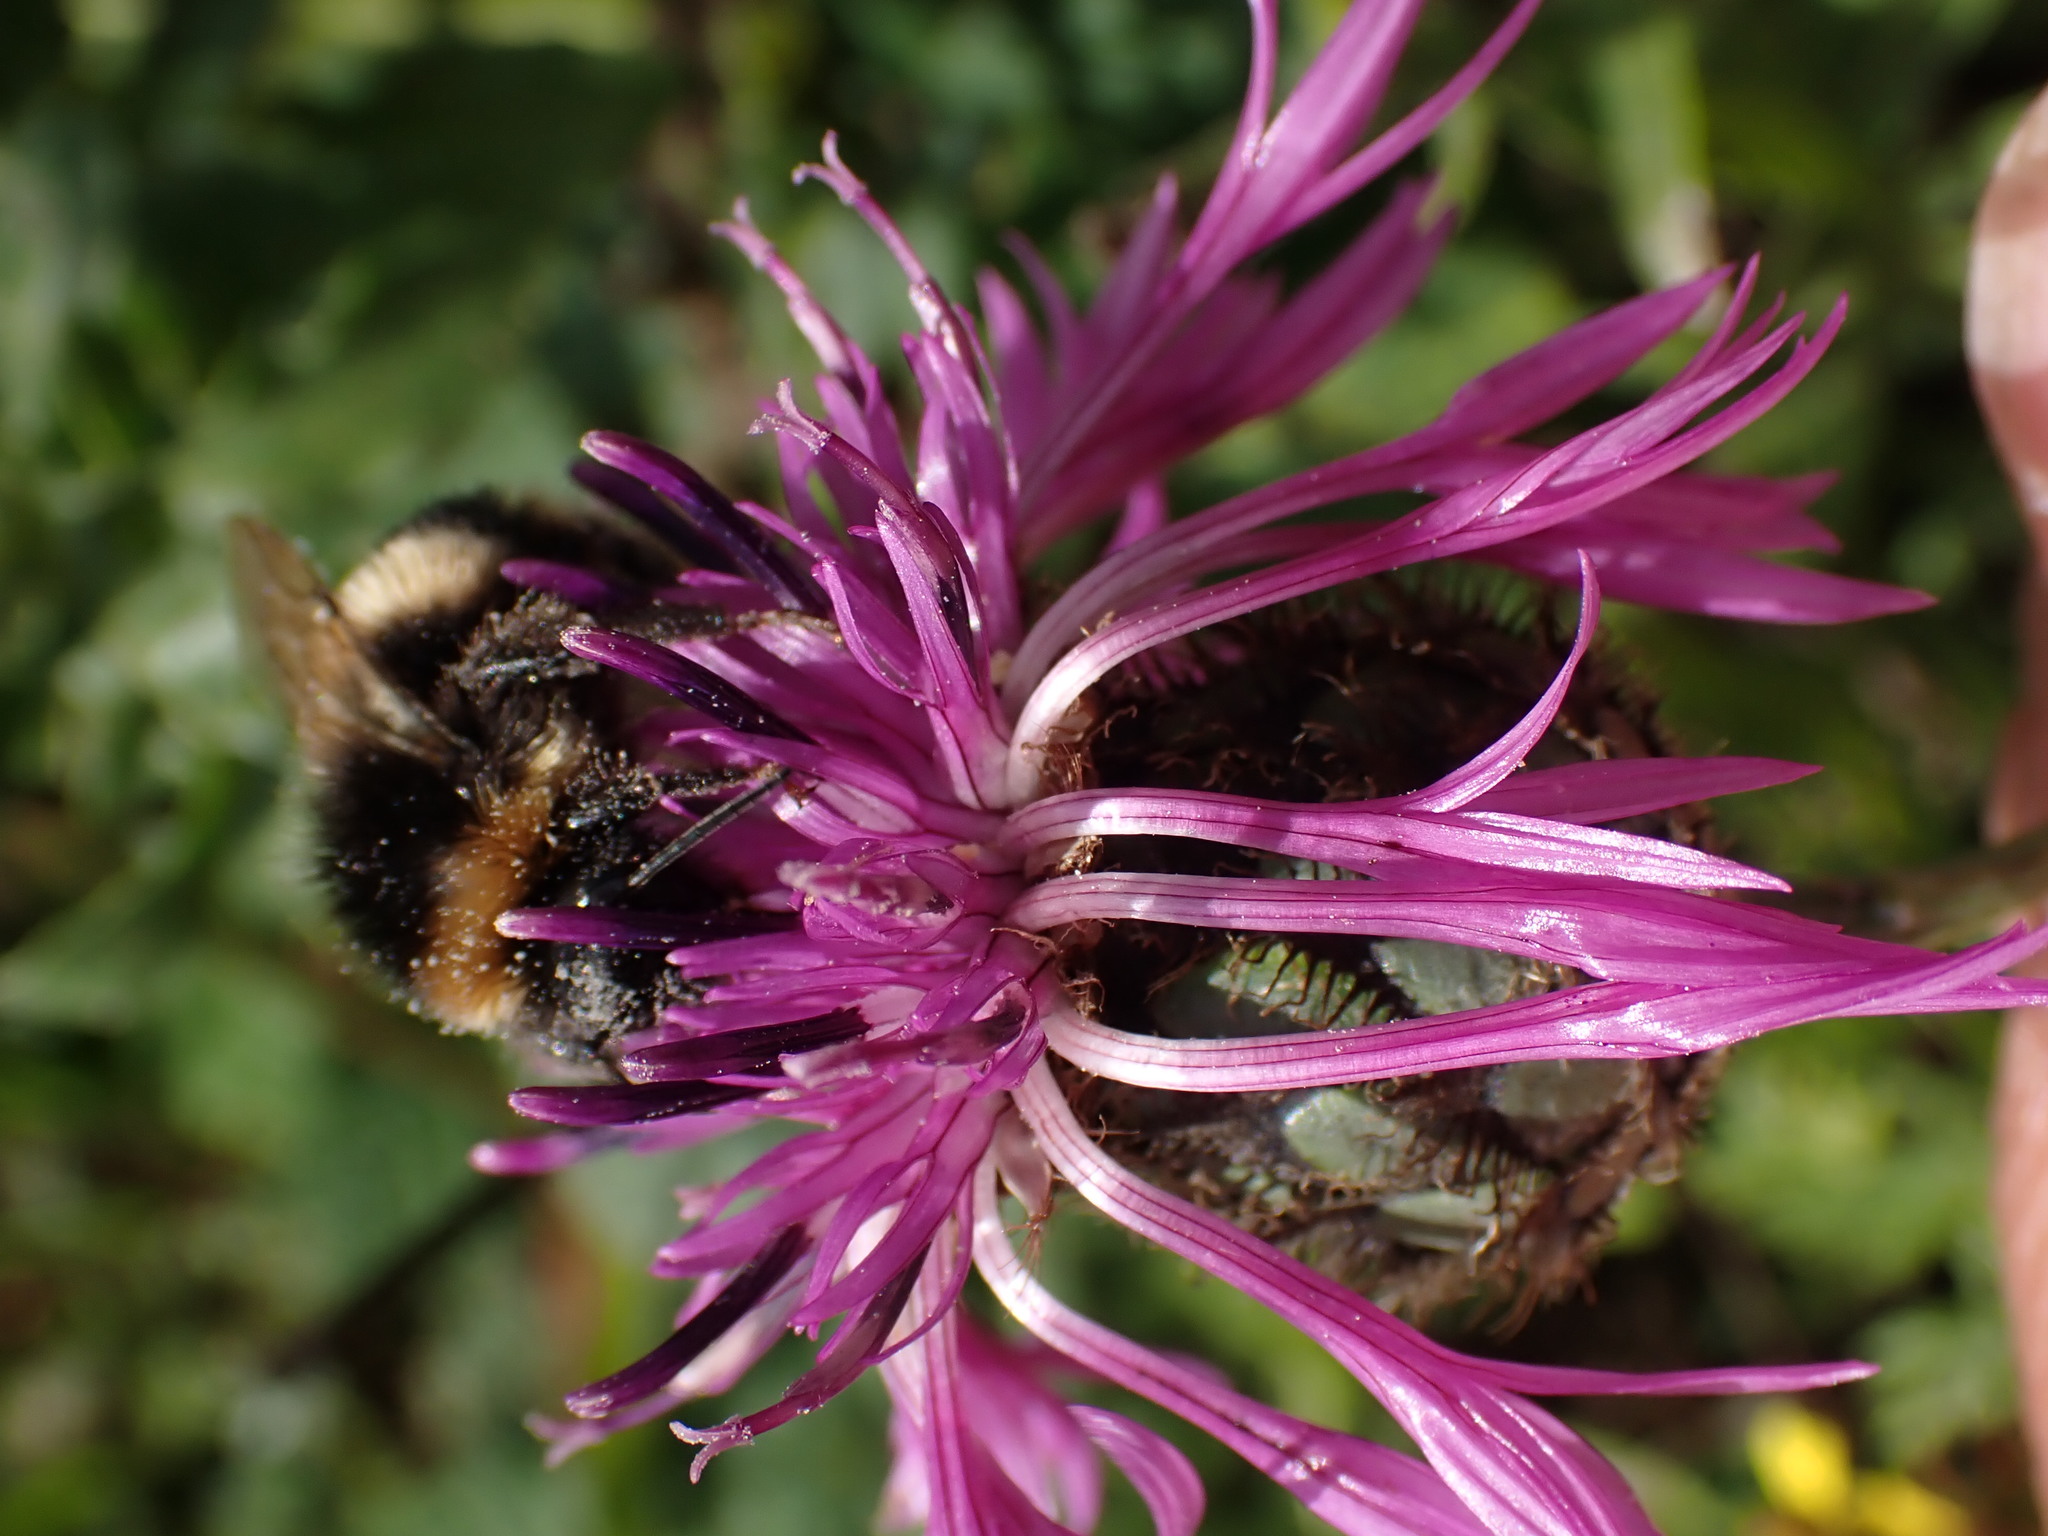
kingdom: Plantae
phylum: Tracheophyta
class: Magnoliopsida
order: Asterales
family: Asteraceae
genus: Centaurea
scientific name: Centaurea scabiosa
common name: Greater knapweed
